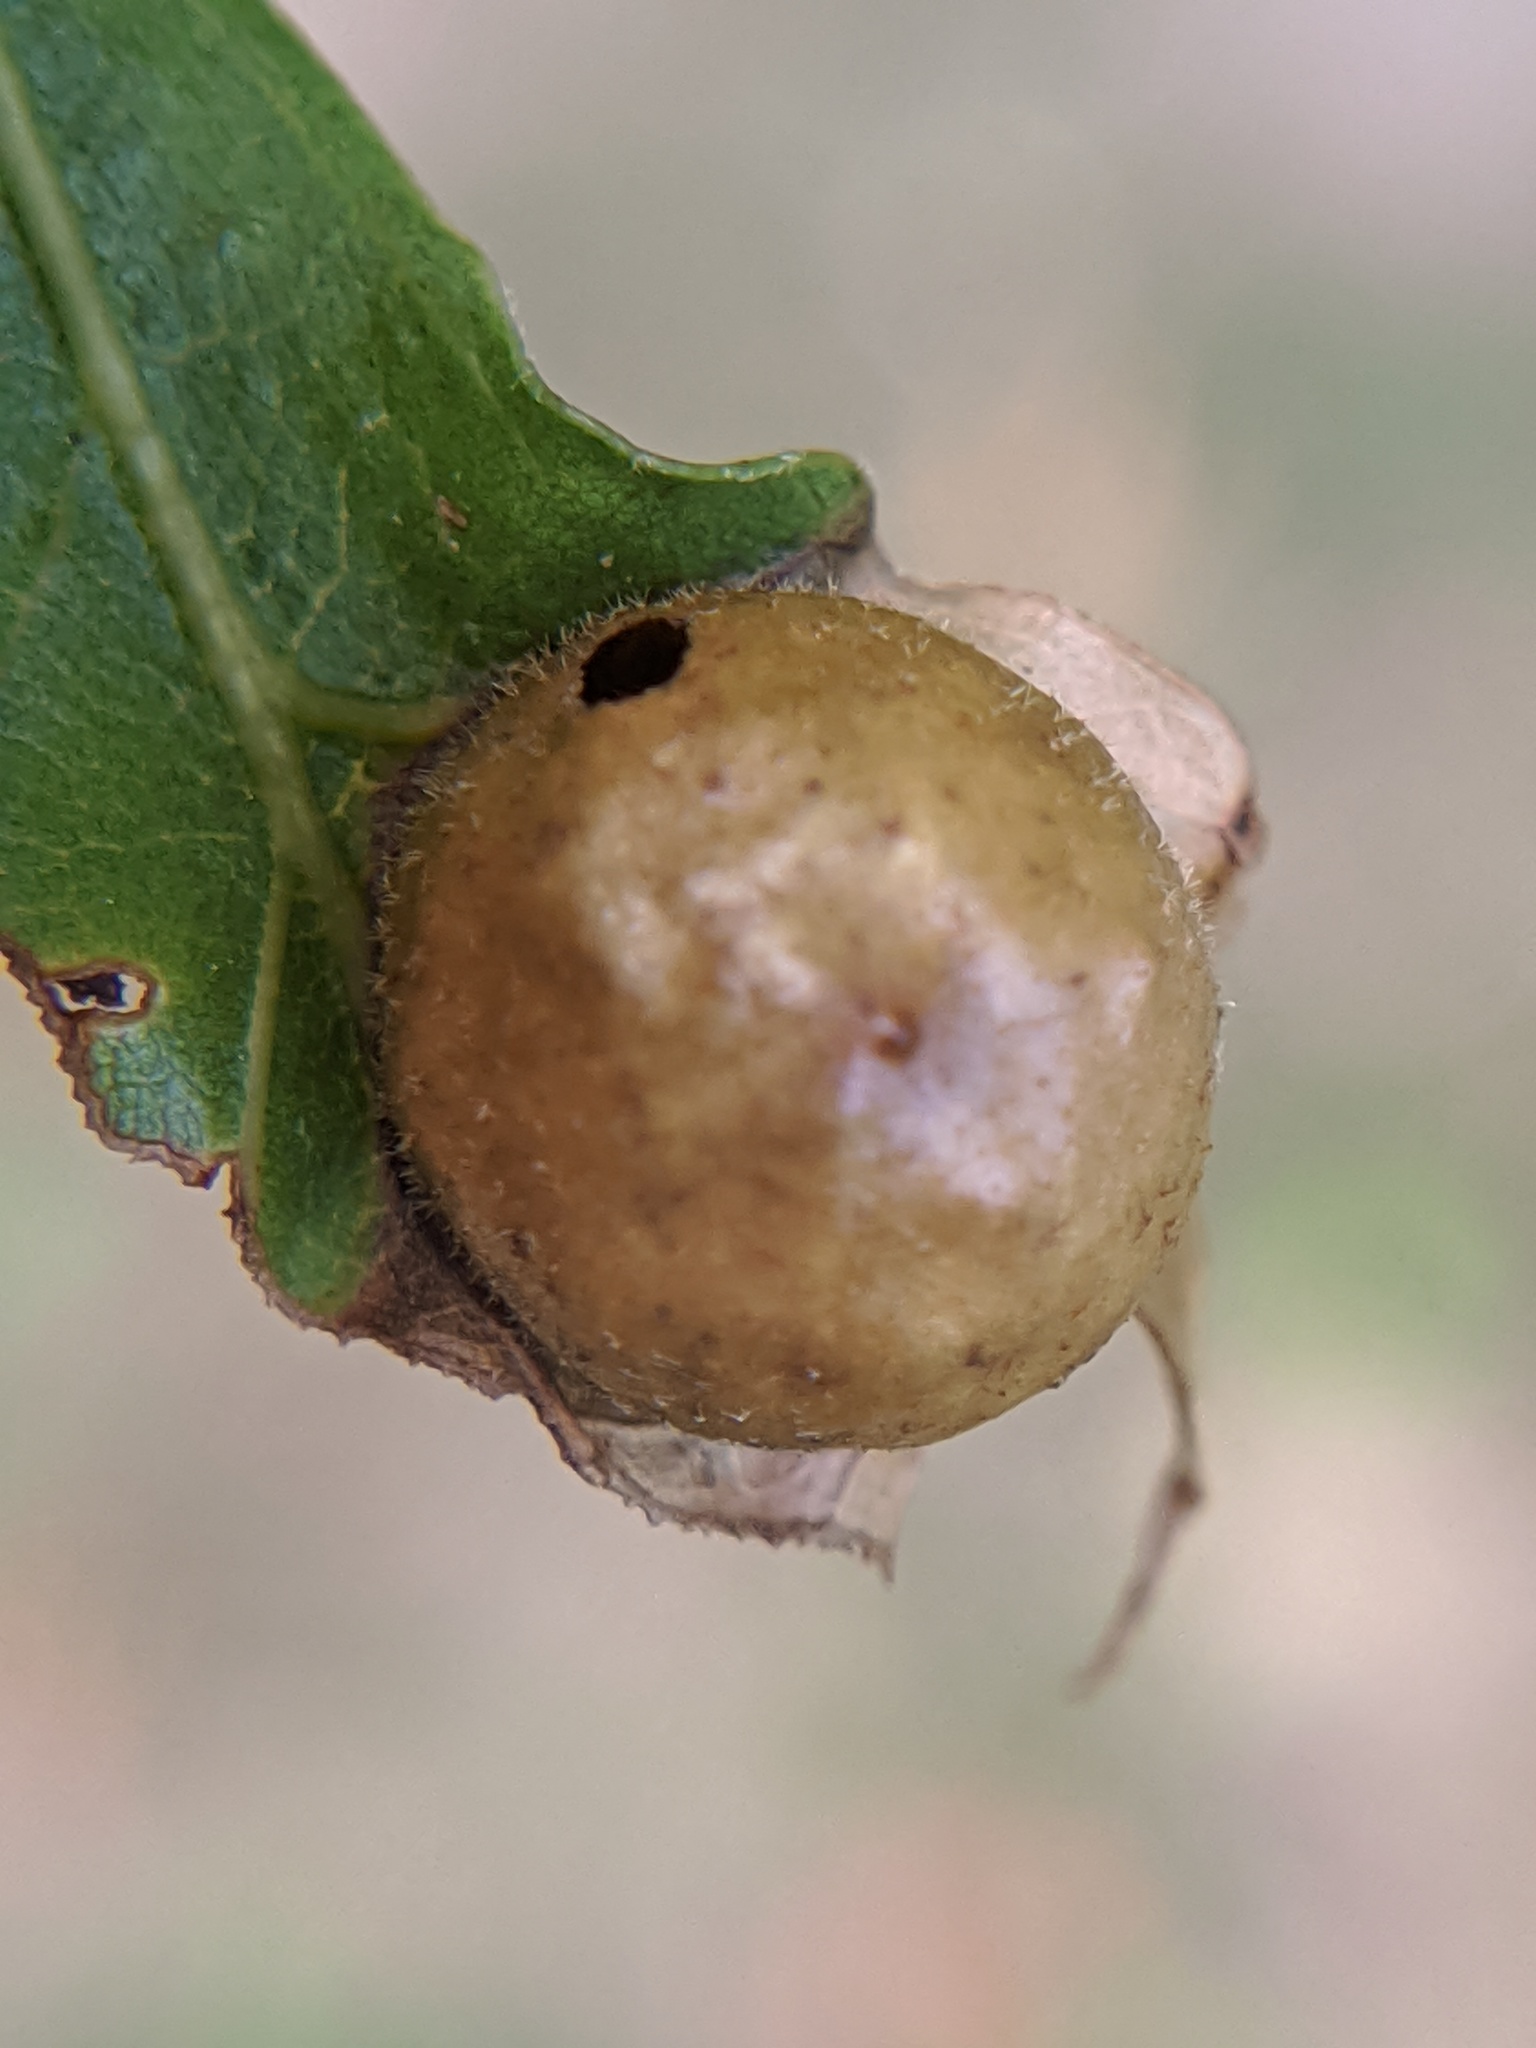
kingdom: Animalia
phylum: Arthropoda
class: Insecta
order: Hymenoptera
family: Cynipidae
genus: Amphibolips
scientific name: Amphibolips
